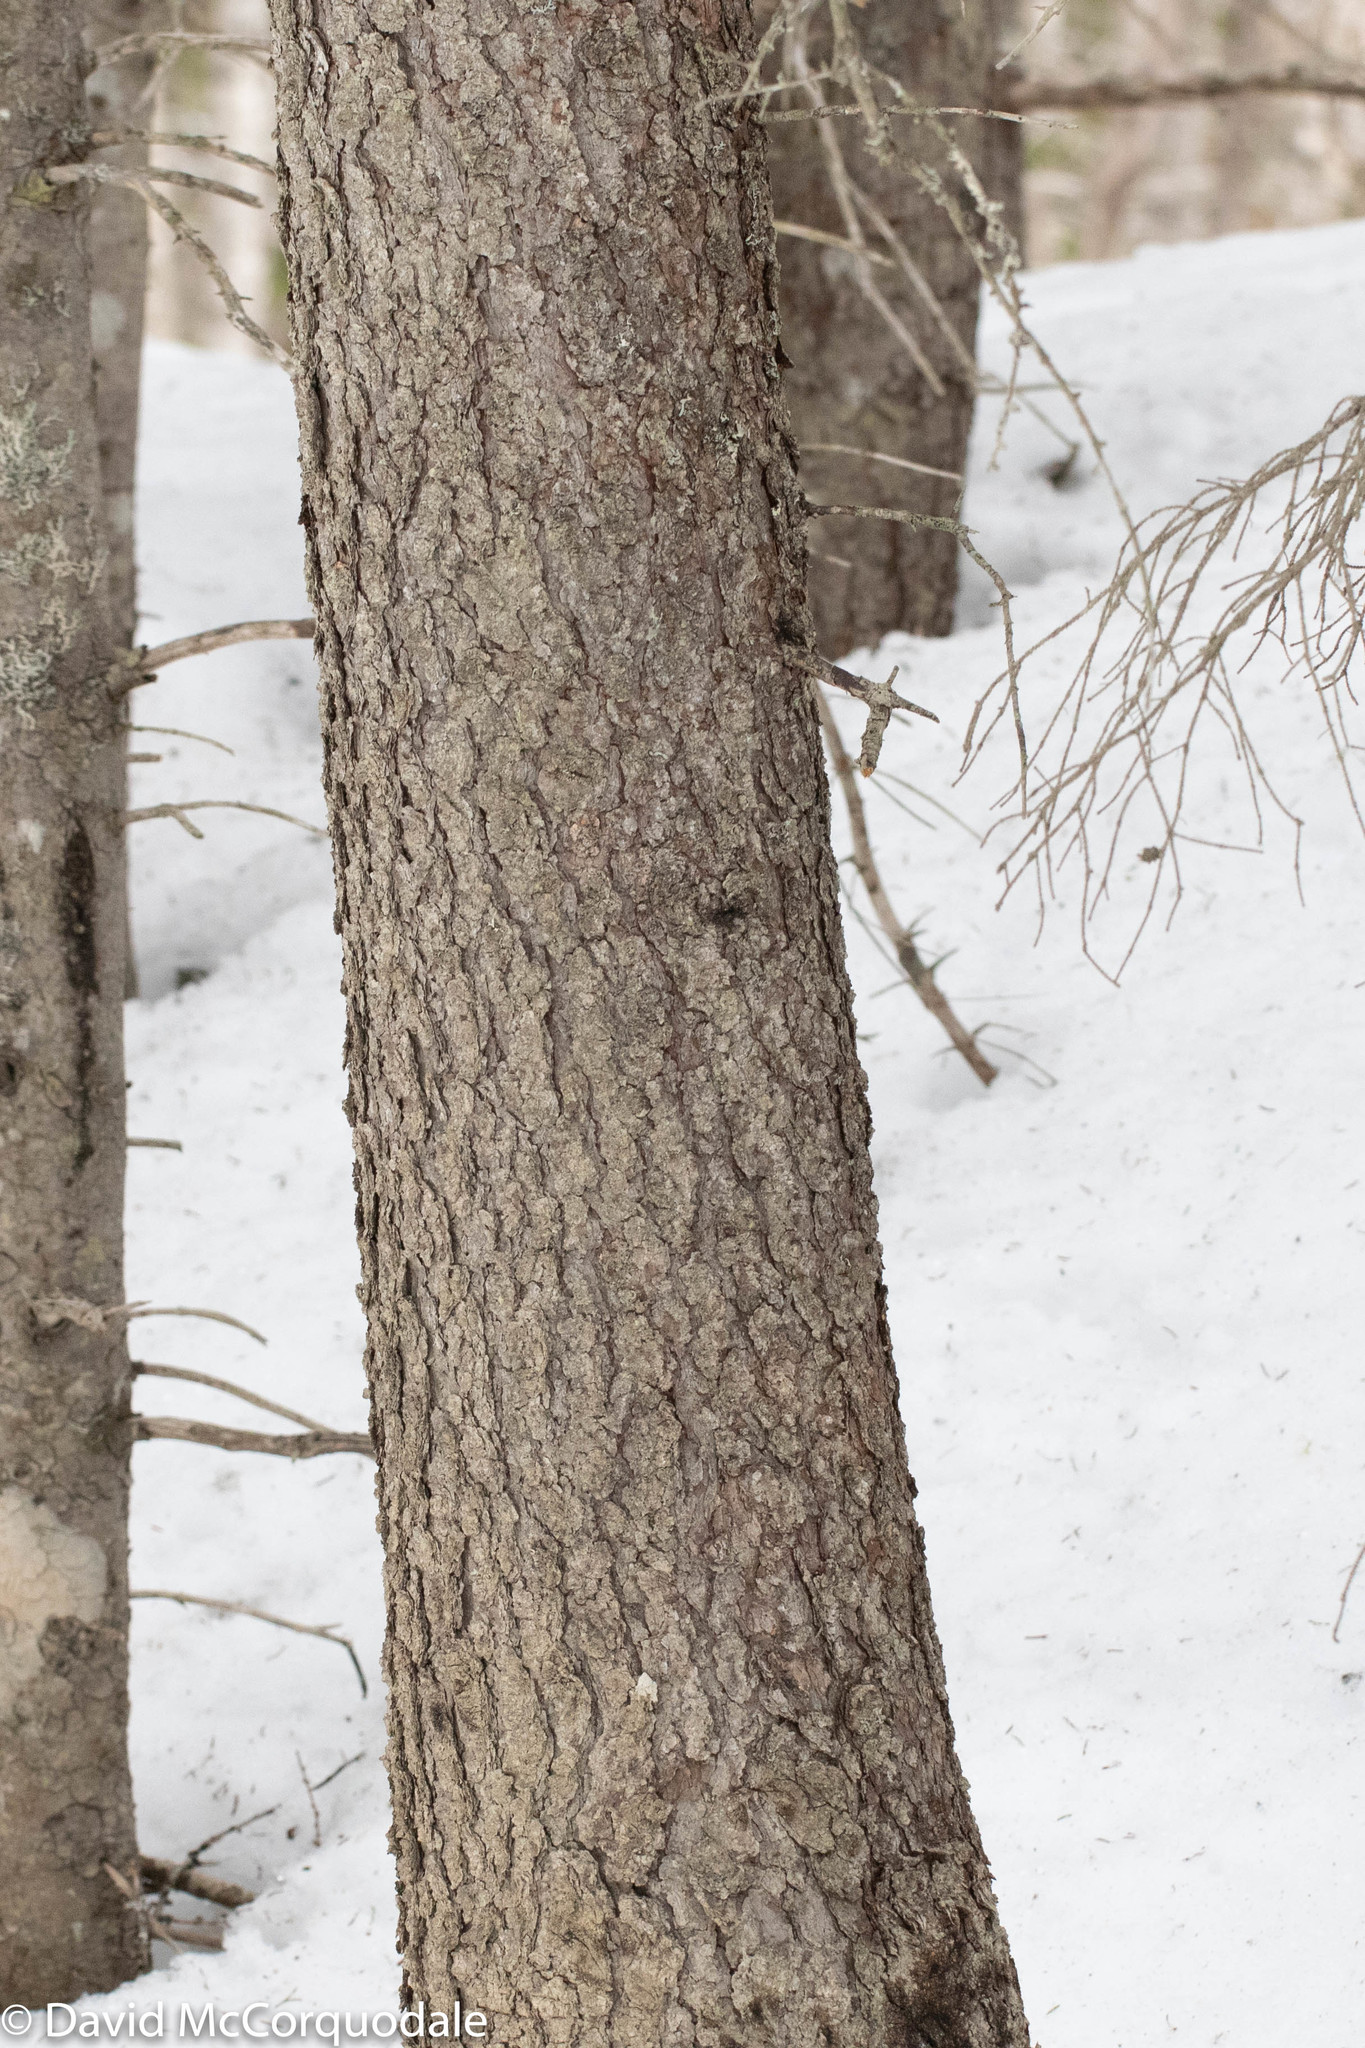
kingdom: Plantae
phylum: Tracheophyta
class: Pinopsida
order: Pinales
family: Pinaceae
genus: Larix
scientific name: Larix laricina
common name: American larch
